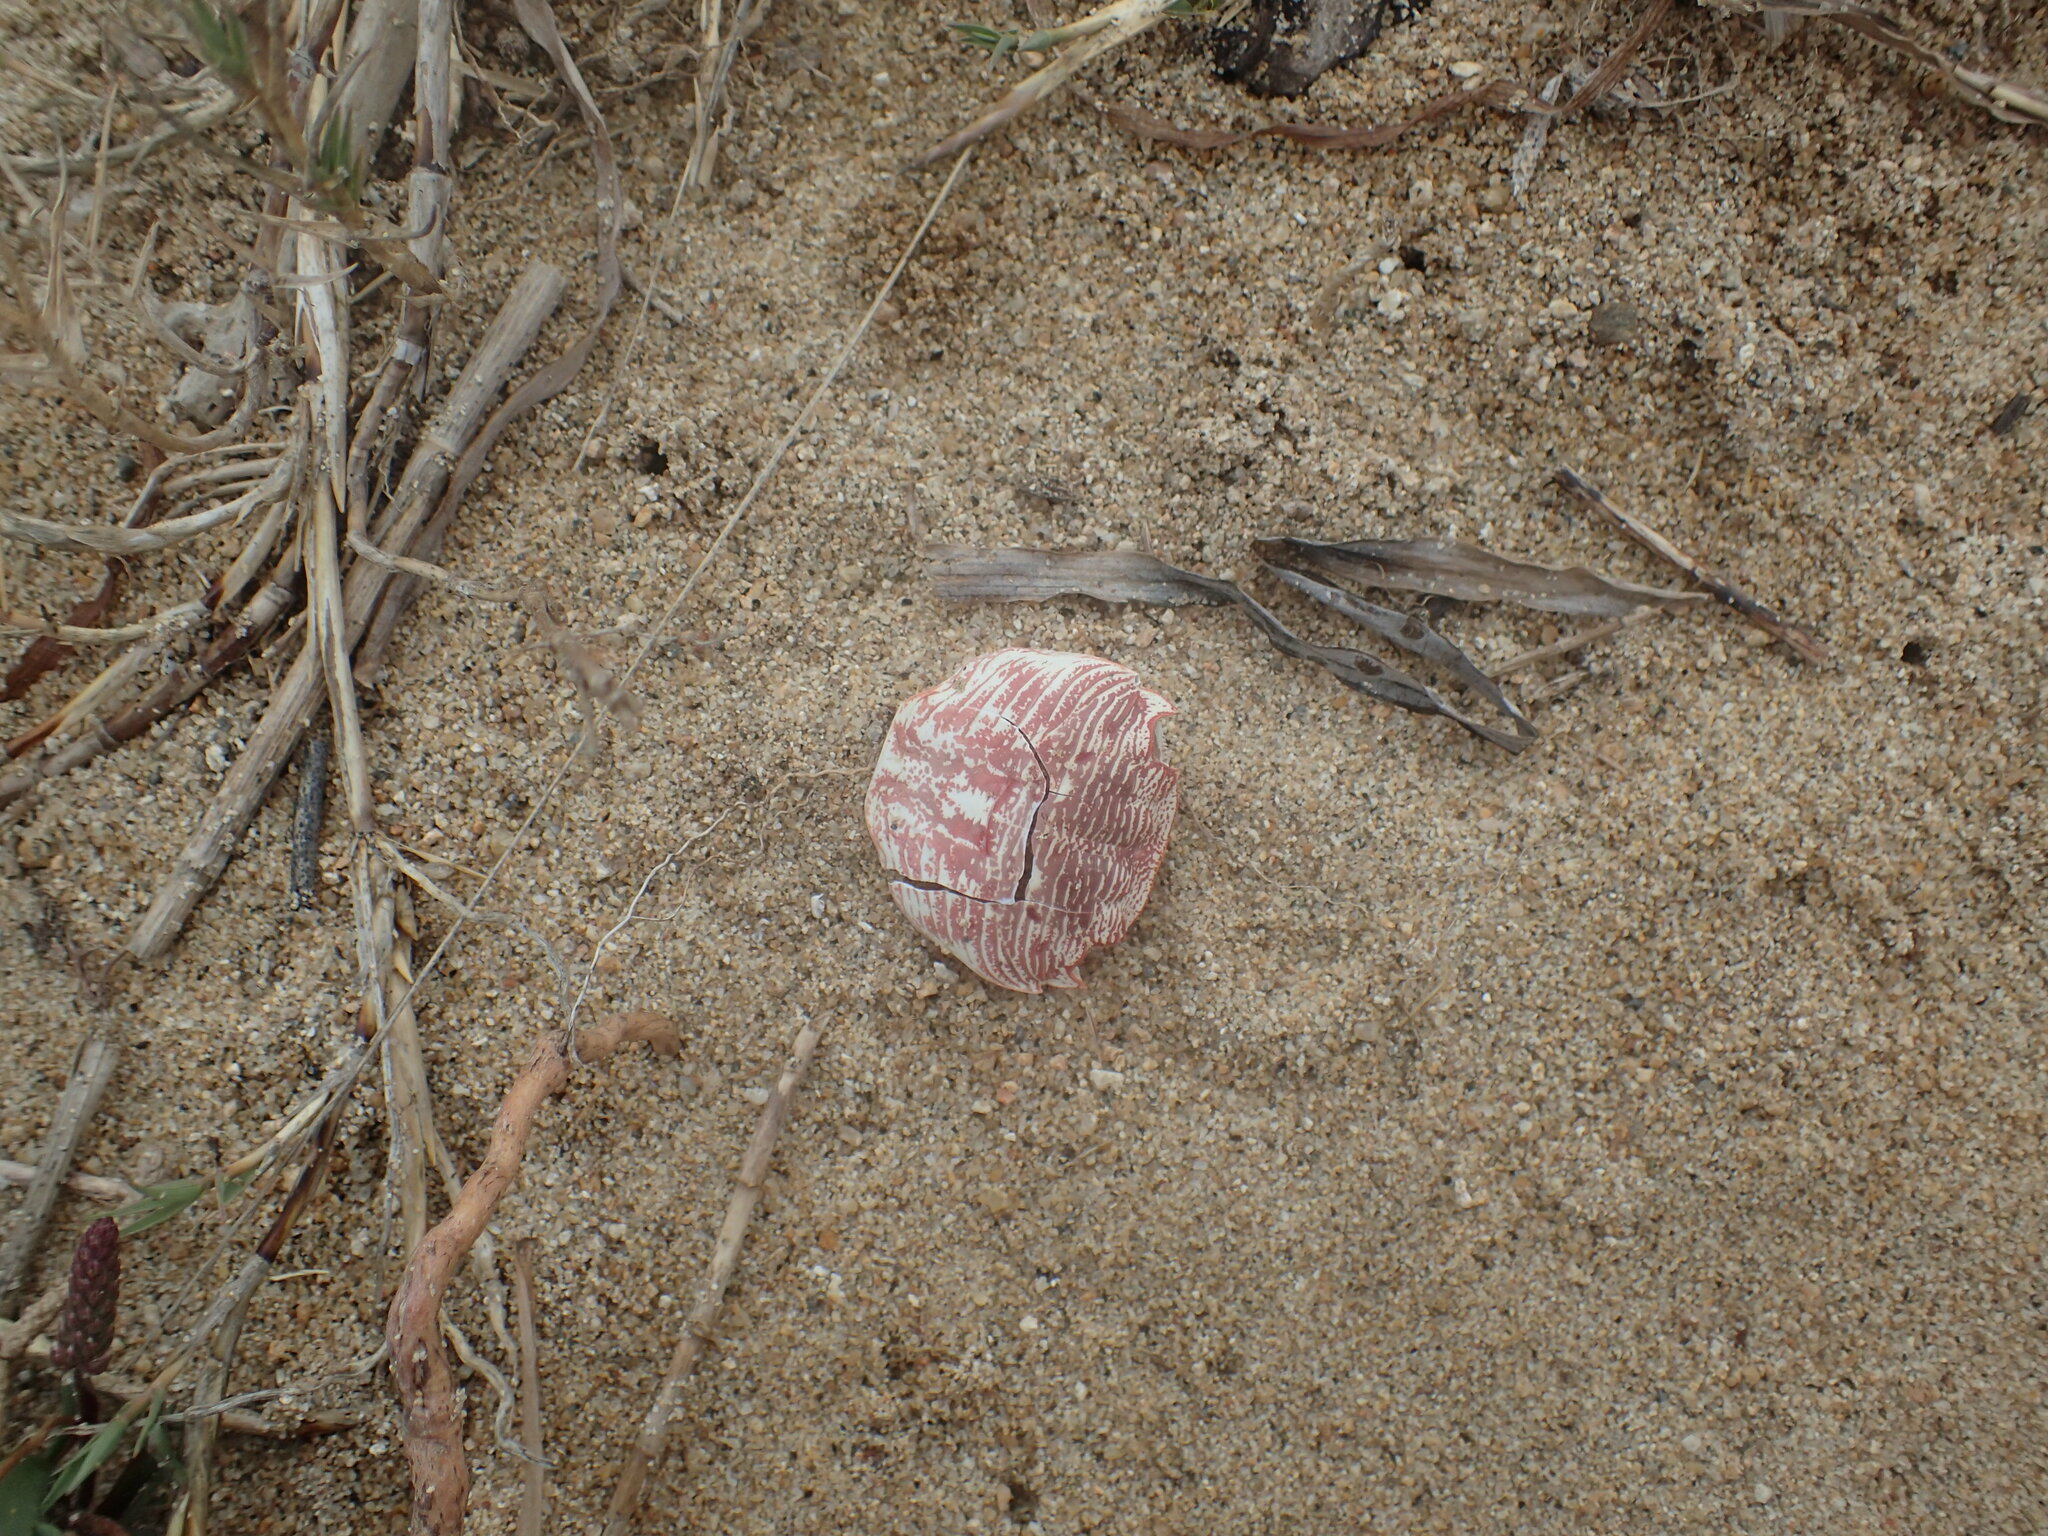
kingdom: Animalia
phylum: Arthropoda
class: Malacostraca
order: Decapoda
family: Grapsidae
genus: Pachygrapsus
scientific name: Pachygrapsus crassipes
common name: Striped shore crab
